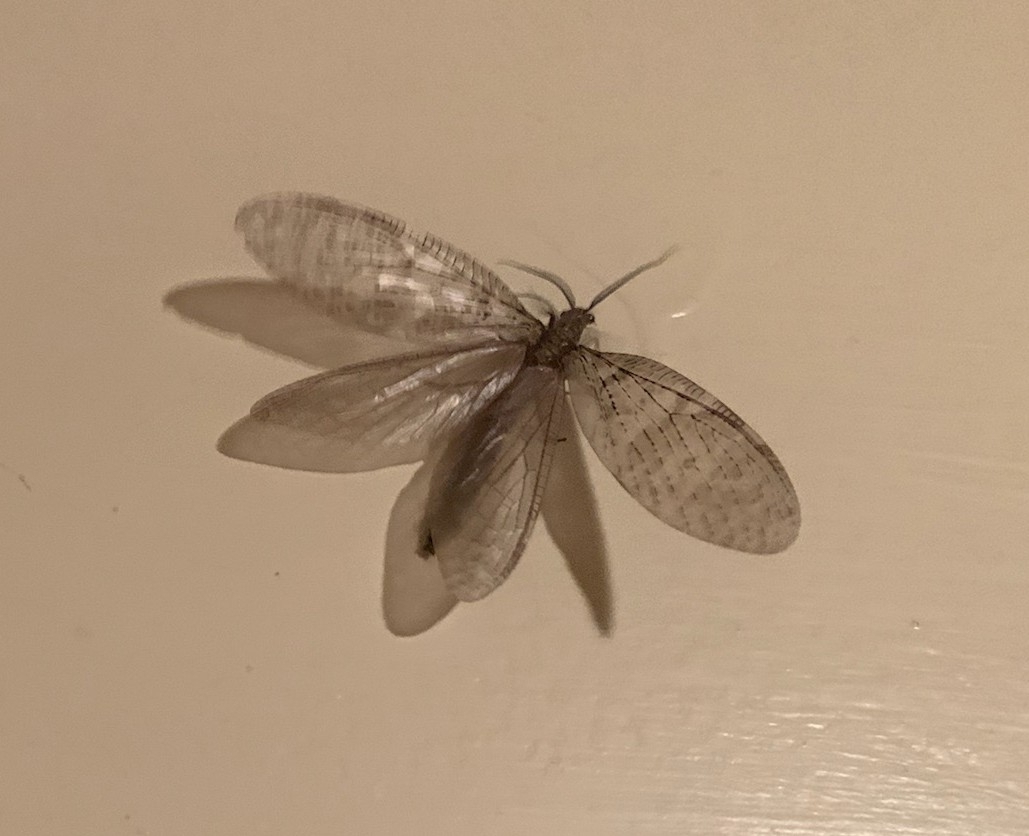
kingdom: Animalia
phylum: Arthropoda
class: Insecta
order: Megaloptera
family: Corydalidae
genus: Chauliodes
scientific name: Chauliodes pectinicornis
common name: Summer fishfly
